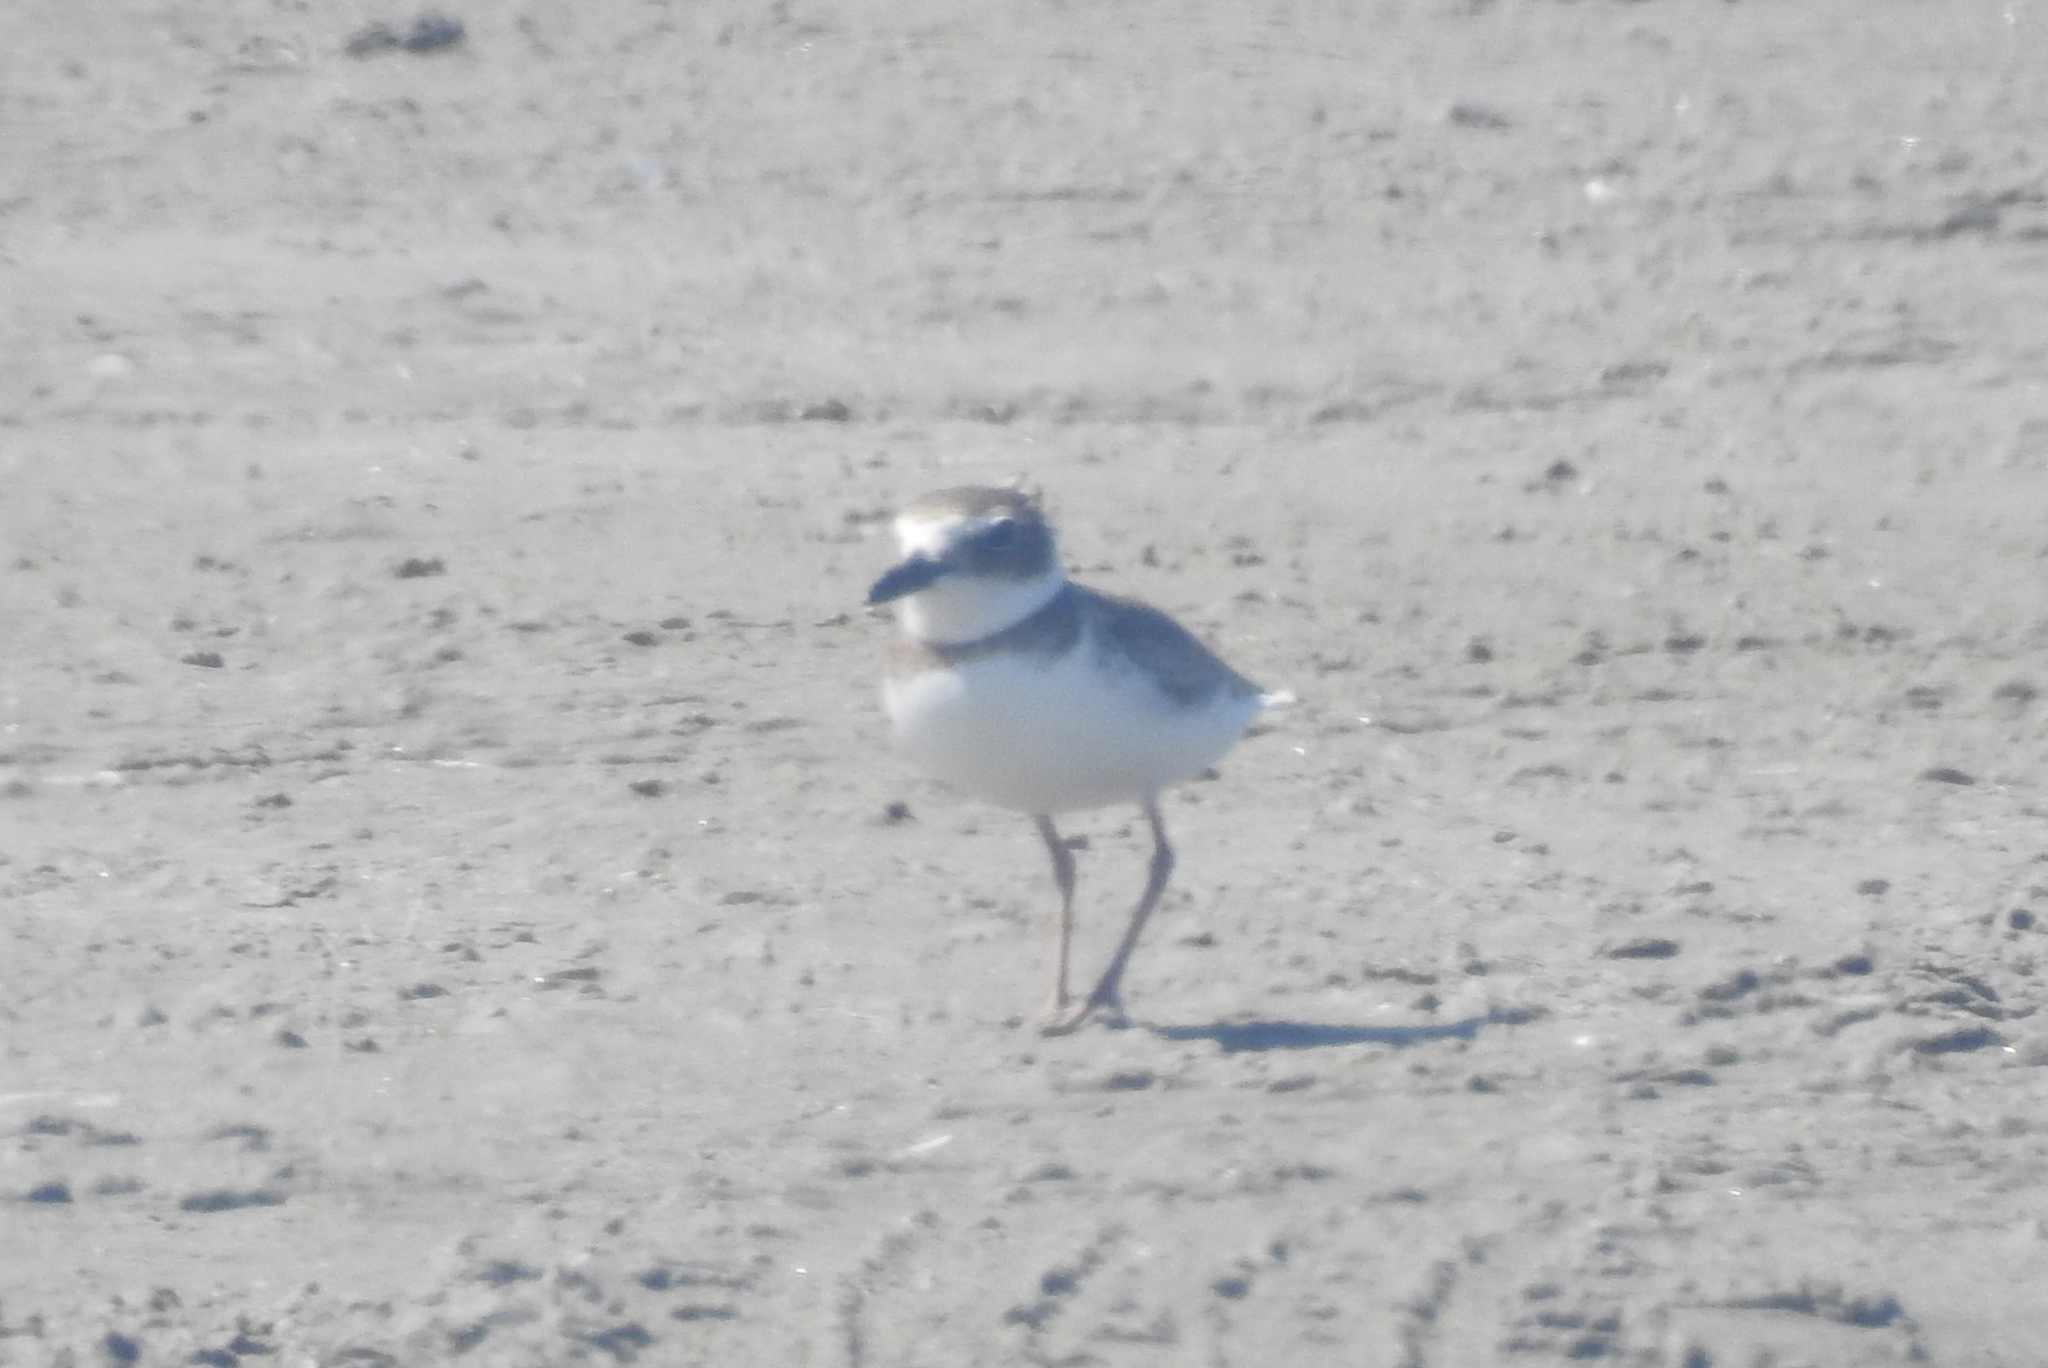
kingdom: Animalia
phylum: Chordata
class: Aves
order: Charadriiformes
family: Charadriidae
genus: Anarhynchus
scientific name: Anarhynchus
